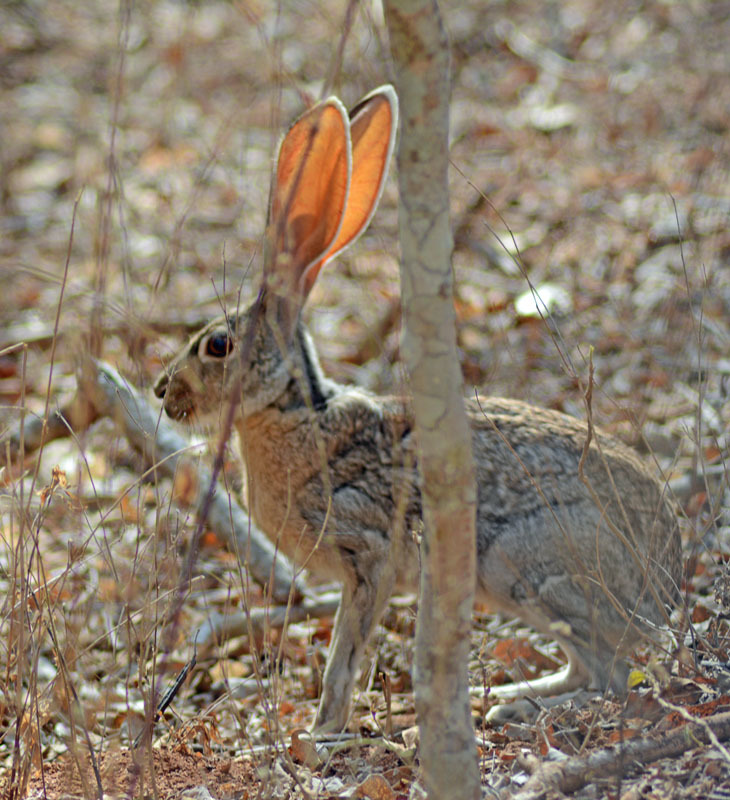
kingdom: Animalia
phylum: Chordata
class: Mammalia
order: Lagomorpha
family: Leporidae
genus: Lepus
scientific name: Lepus alleni
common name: Antelope jackrabbit
